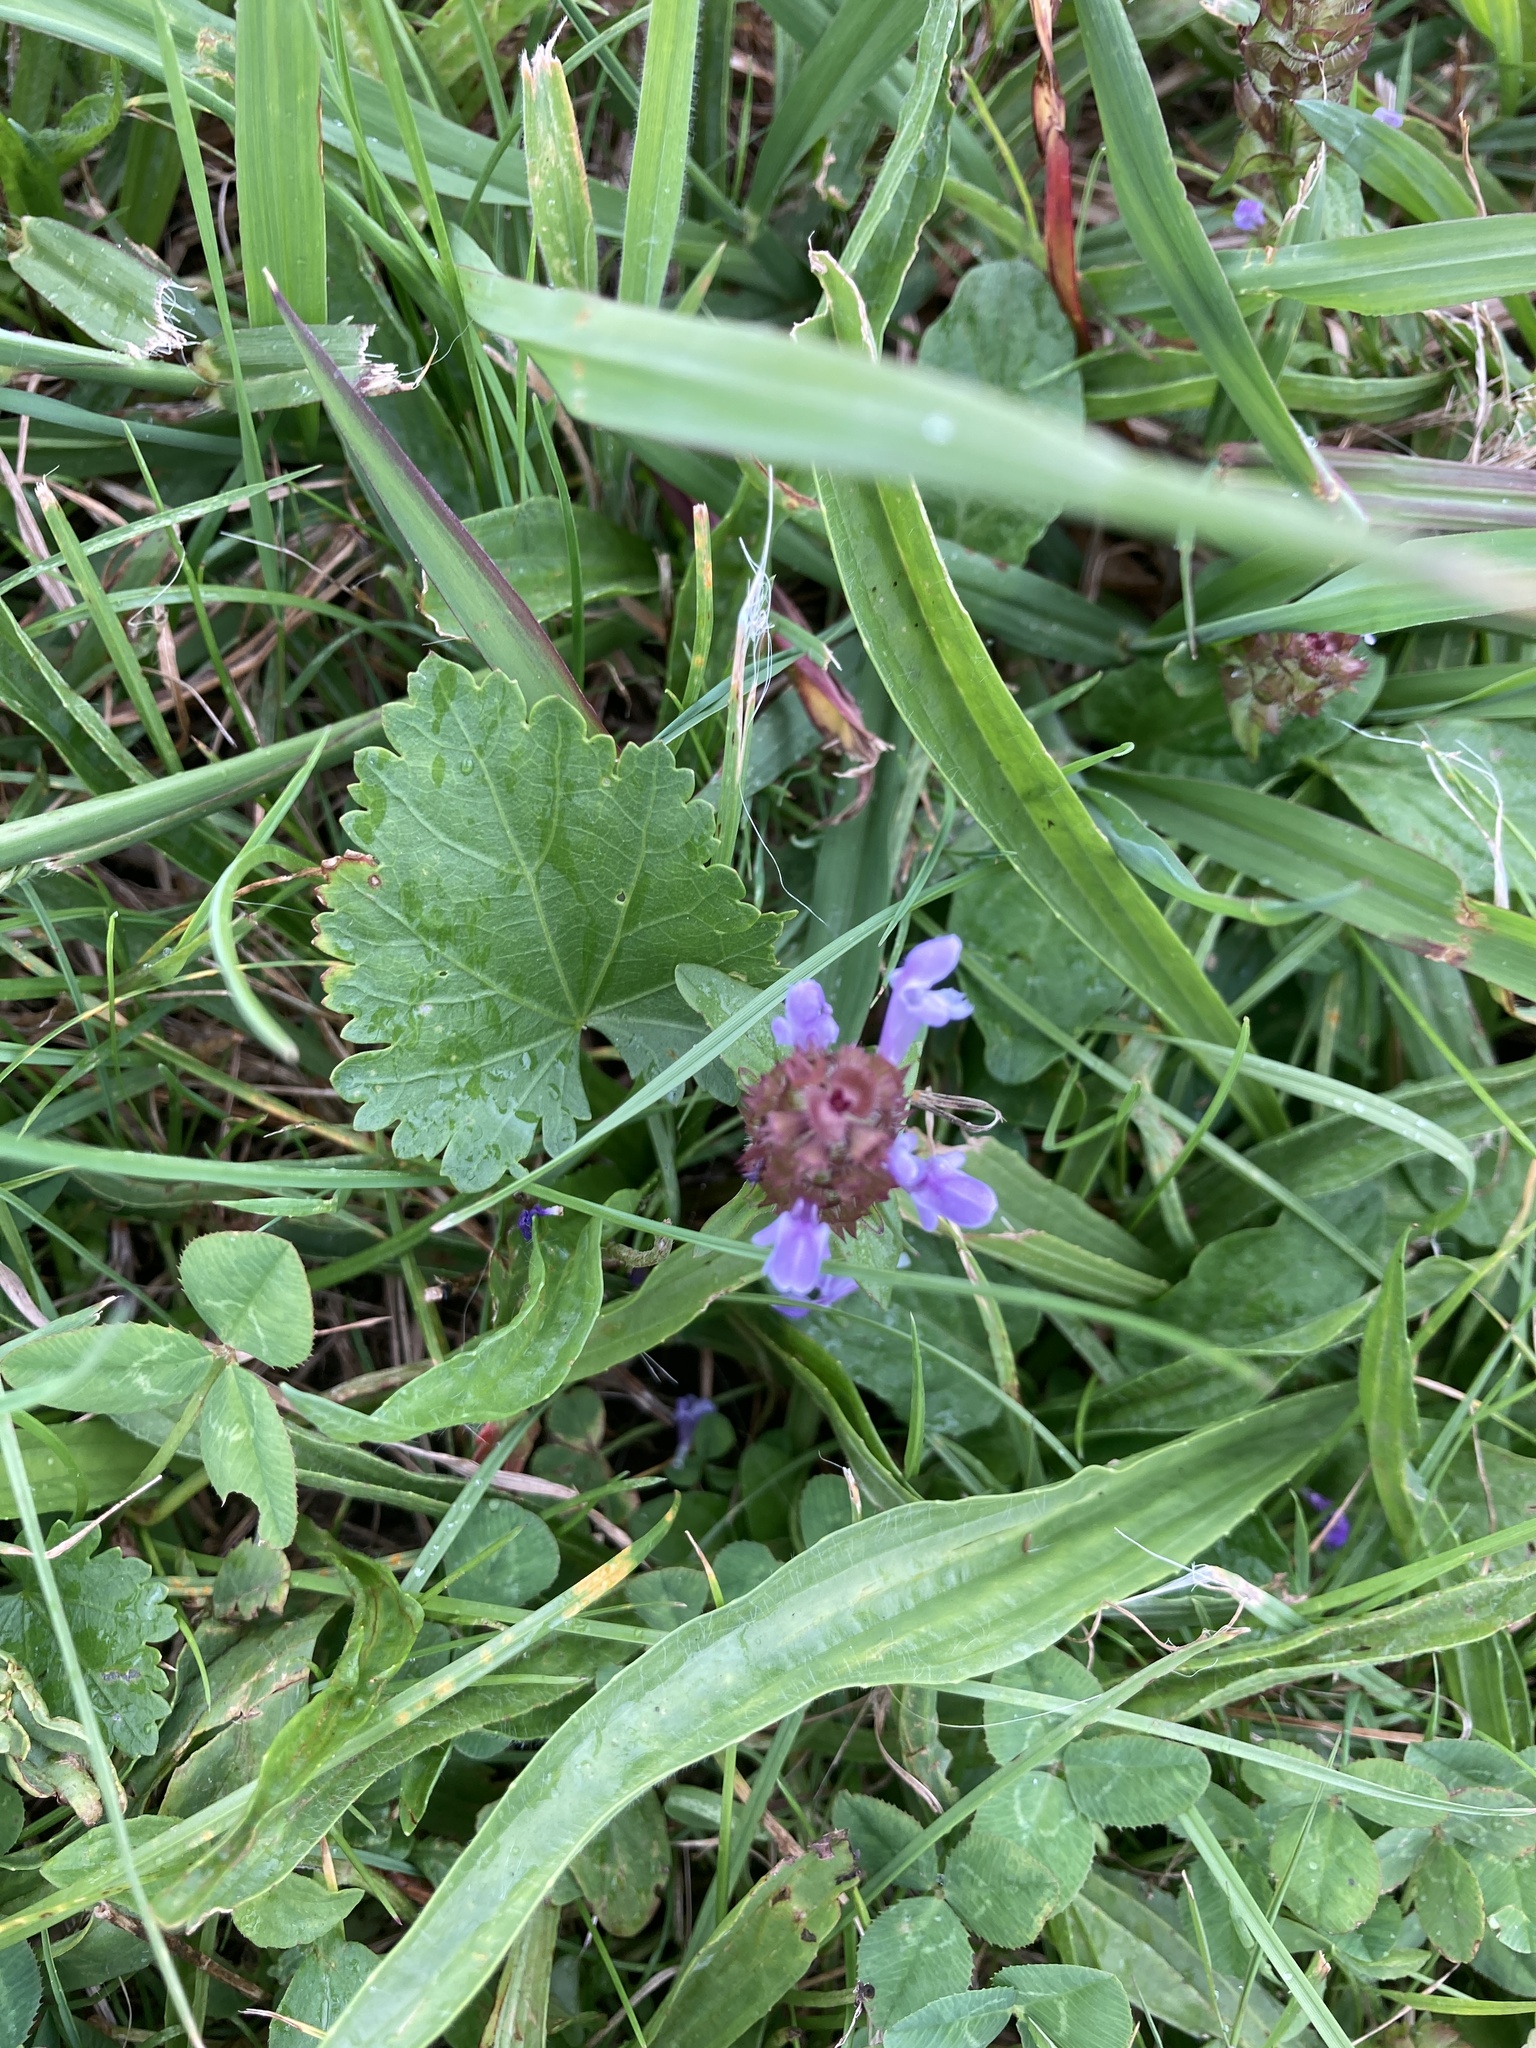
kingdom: Plantae
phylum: Tracheophyta
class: Magnoliopsida
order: Lamiales
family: Lamiaceae
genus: Prunella
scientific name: Prunella vulgaris
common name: Heal-all
